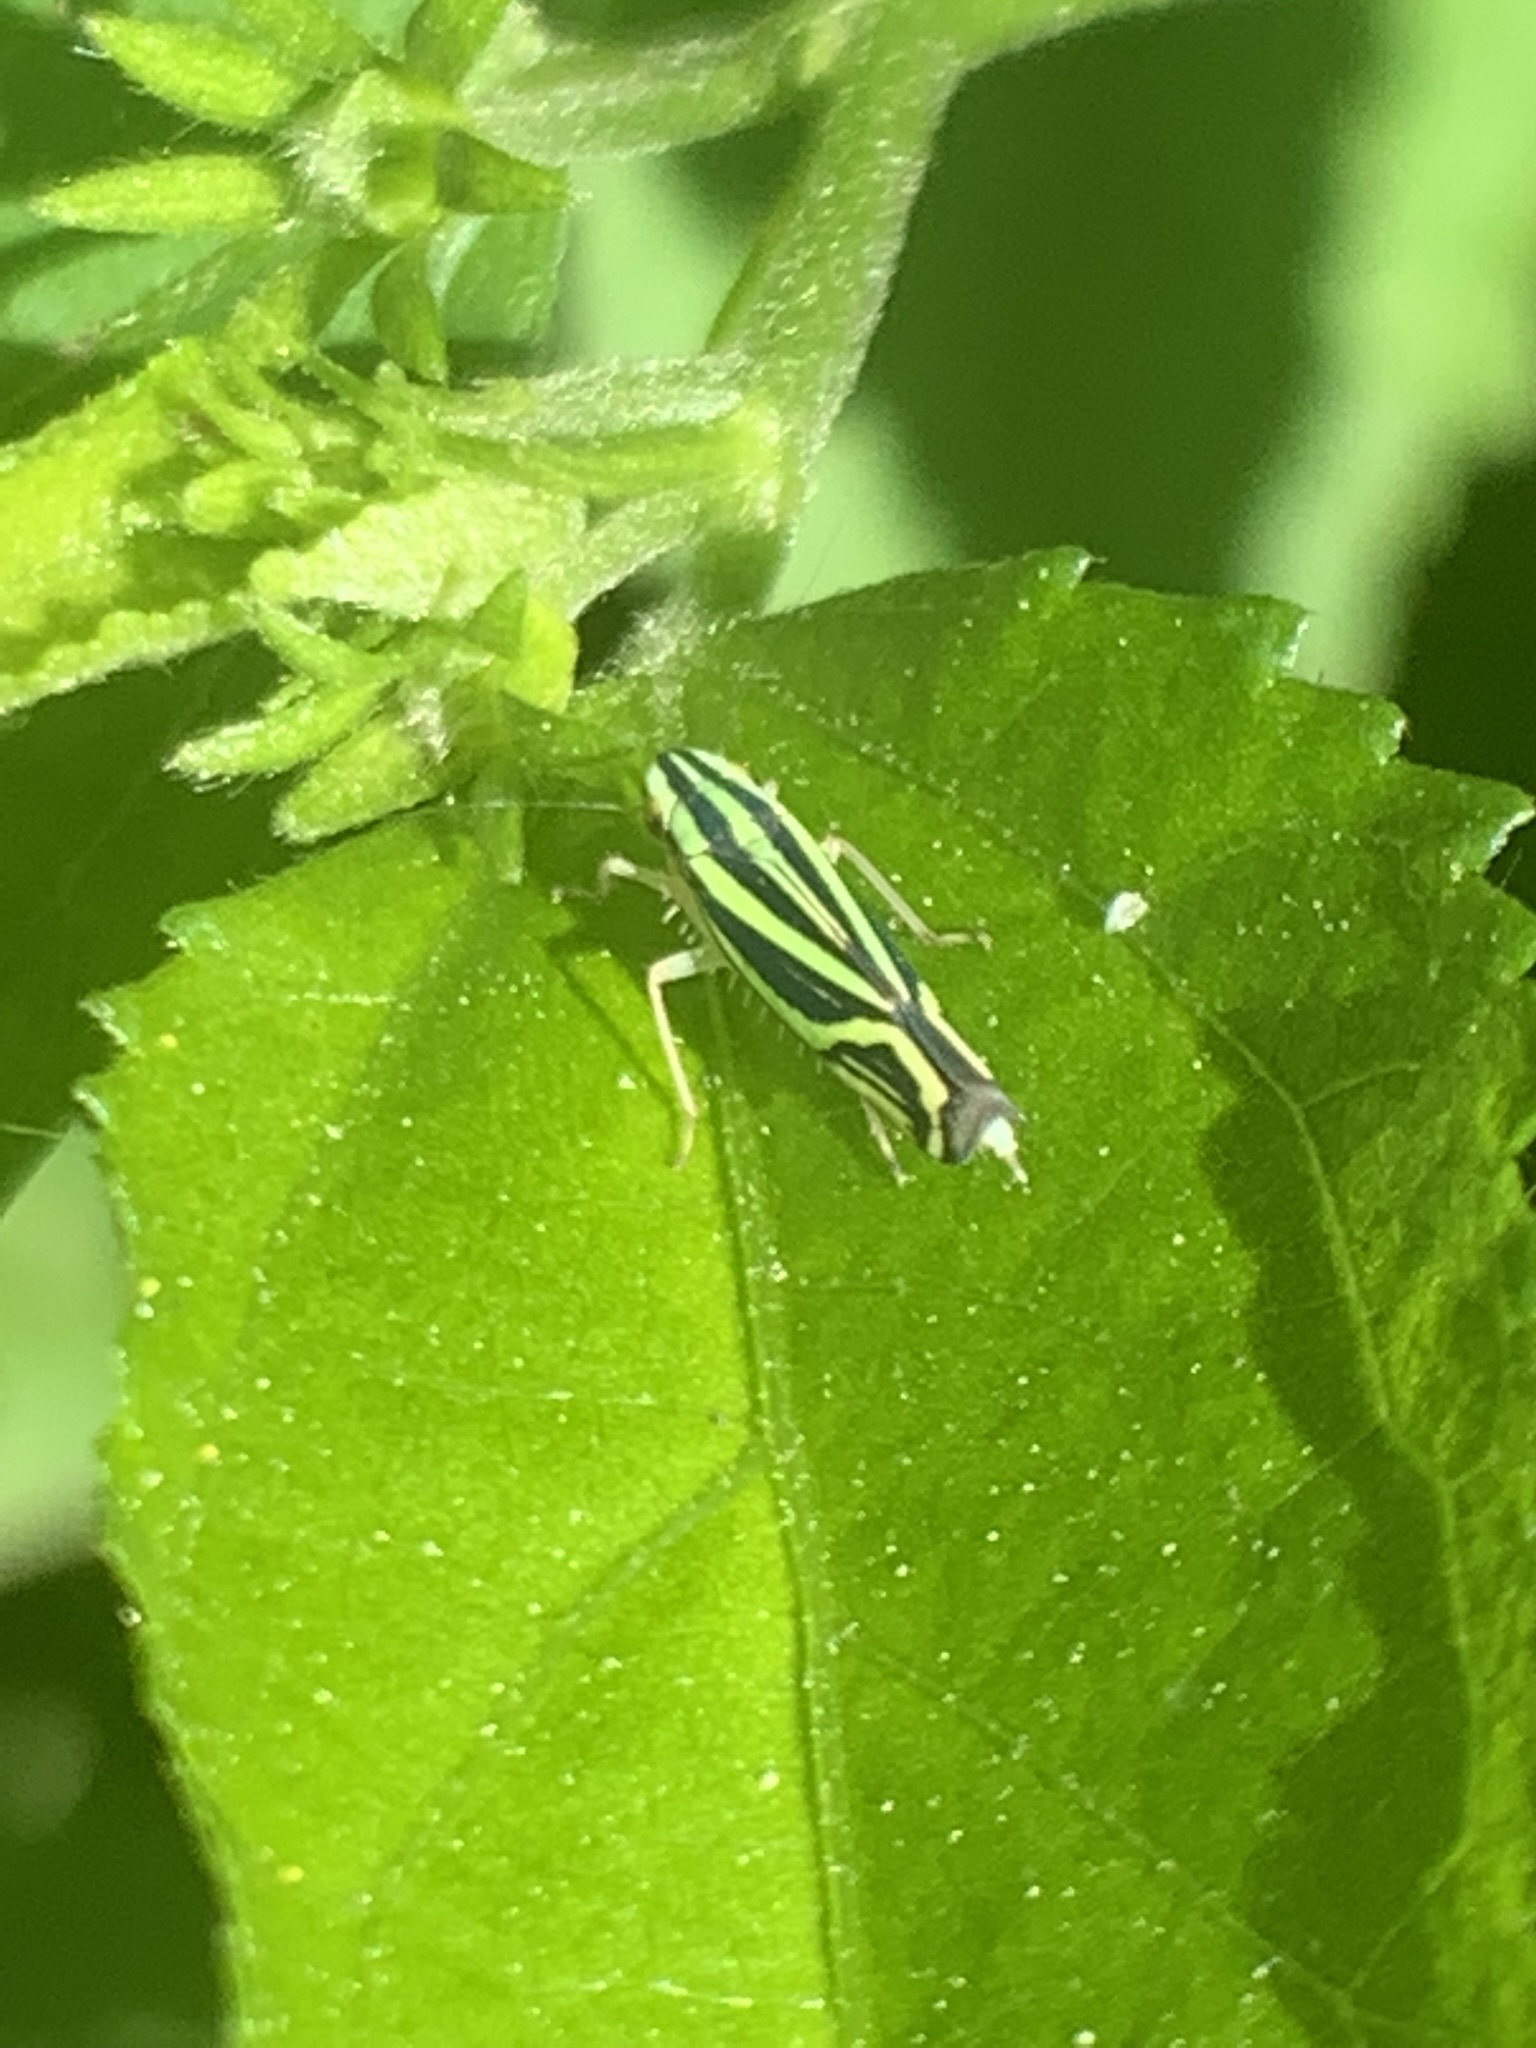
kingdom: Animalia
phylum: Arthropoda
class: Insecta
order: Hemiptera
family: Cicadellidae
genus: Sibovia
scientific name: Sibovia sagata
